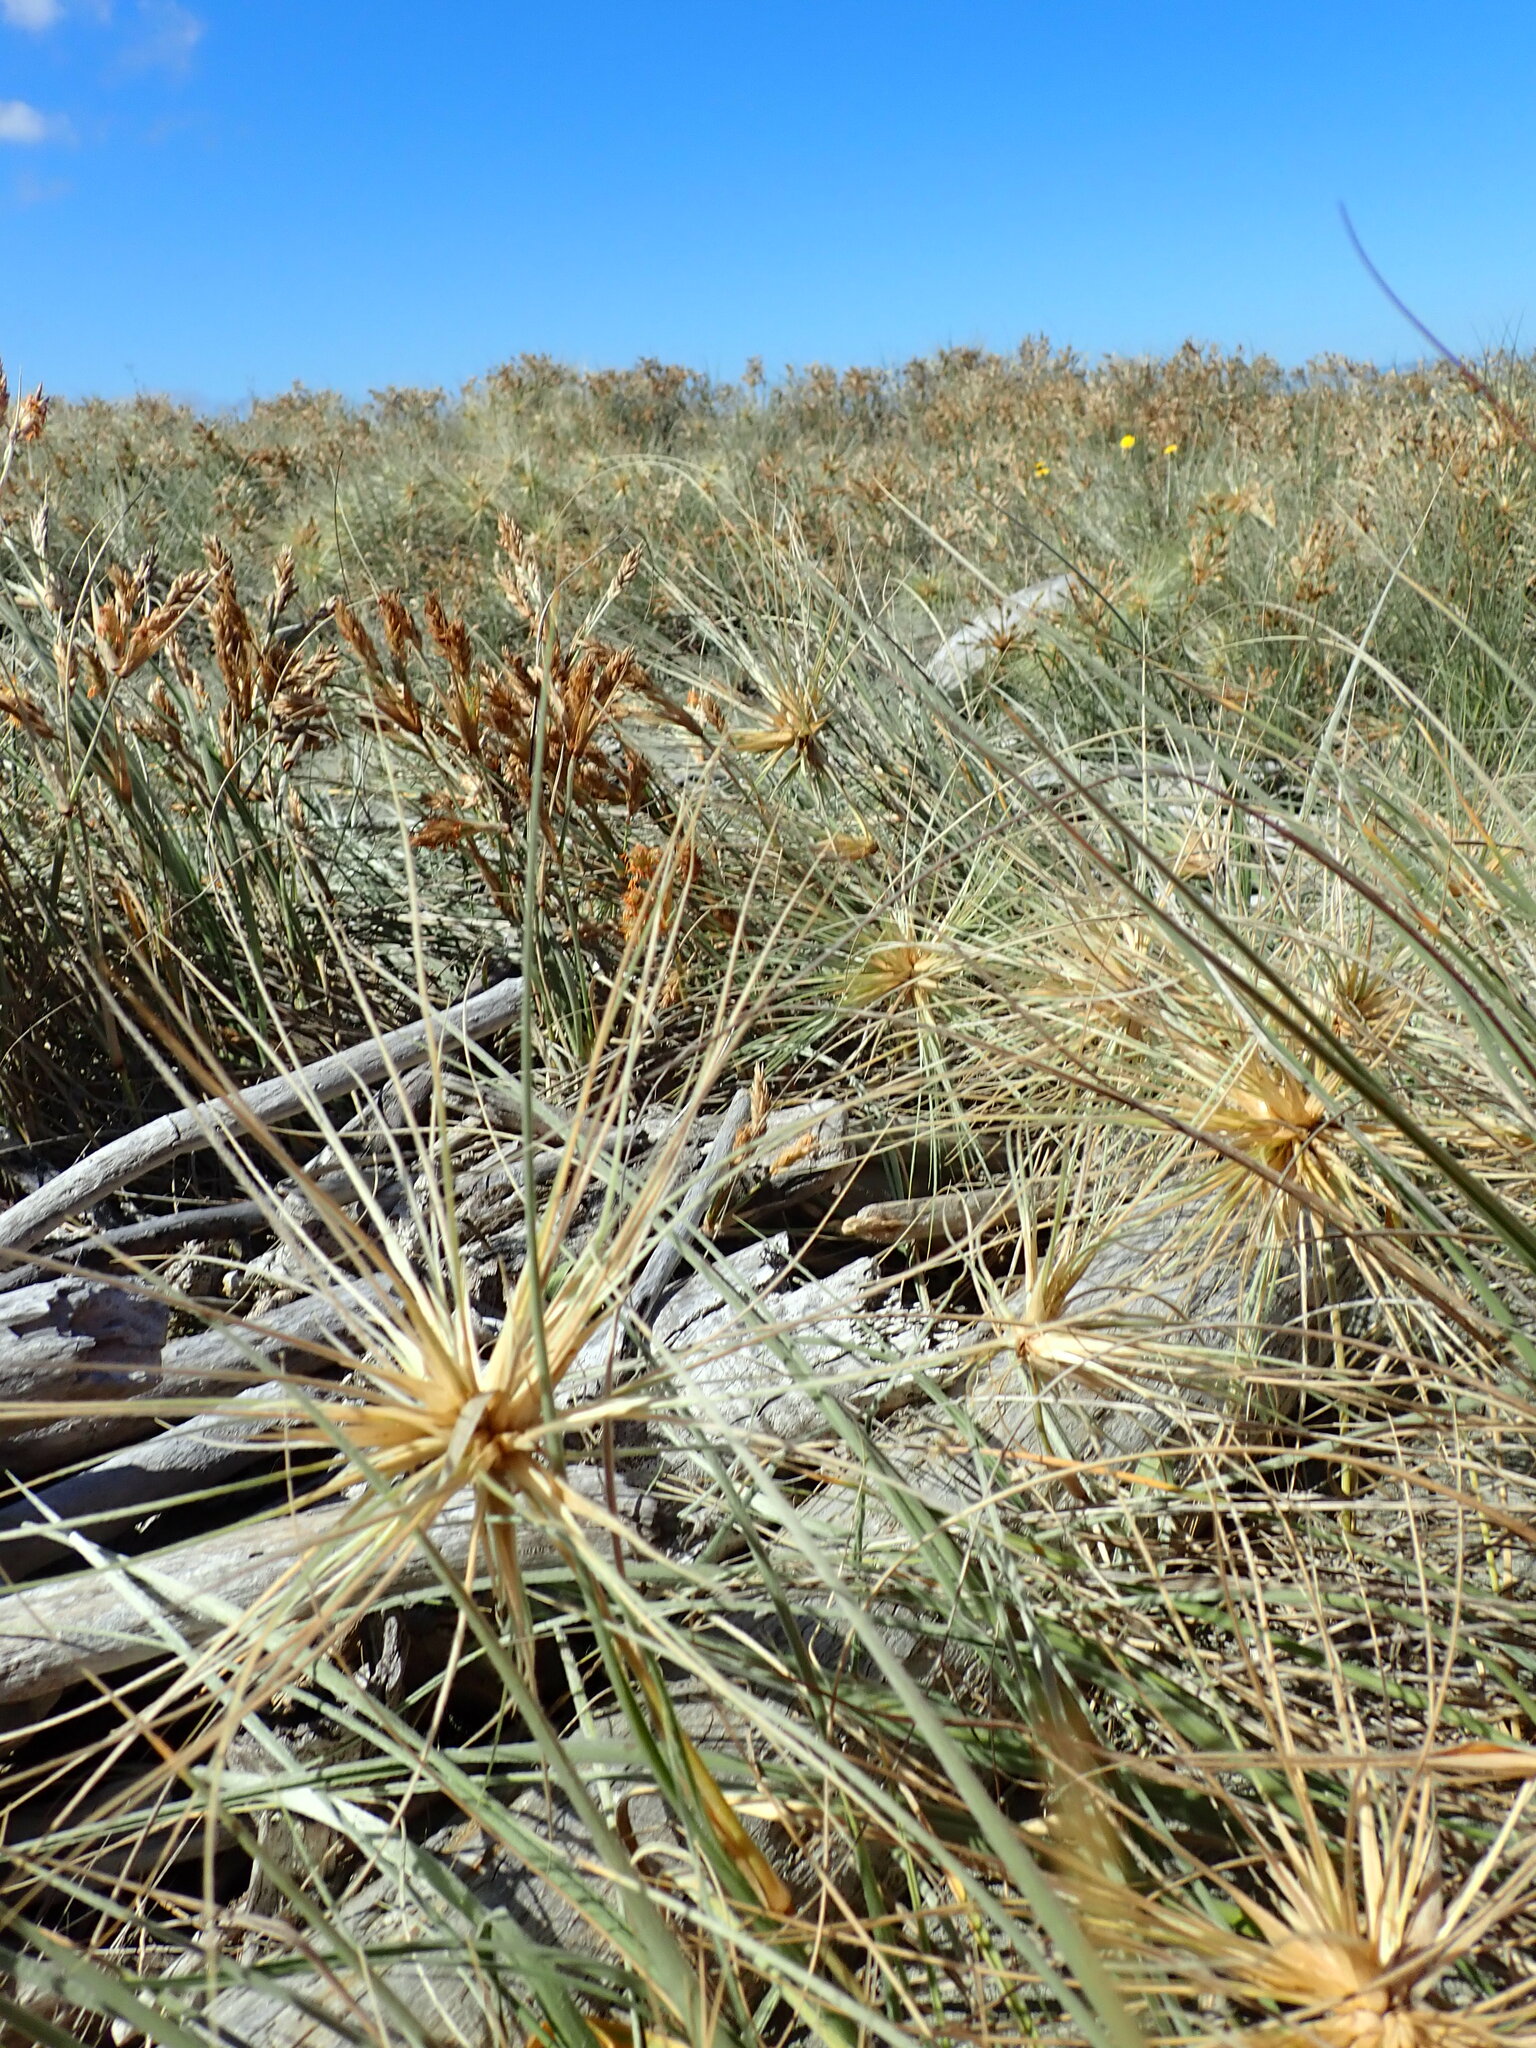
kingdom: Animalia
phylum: Arthropoda
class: Insecta
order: Coleoptera
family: Curculionidae
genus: Mesites
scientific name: Mesites pallidipennis
